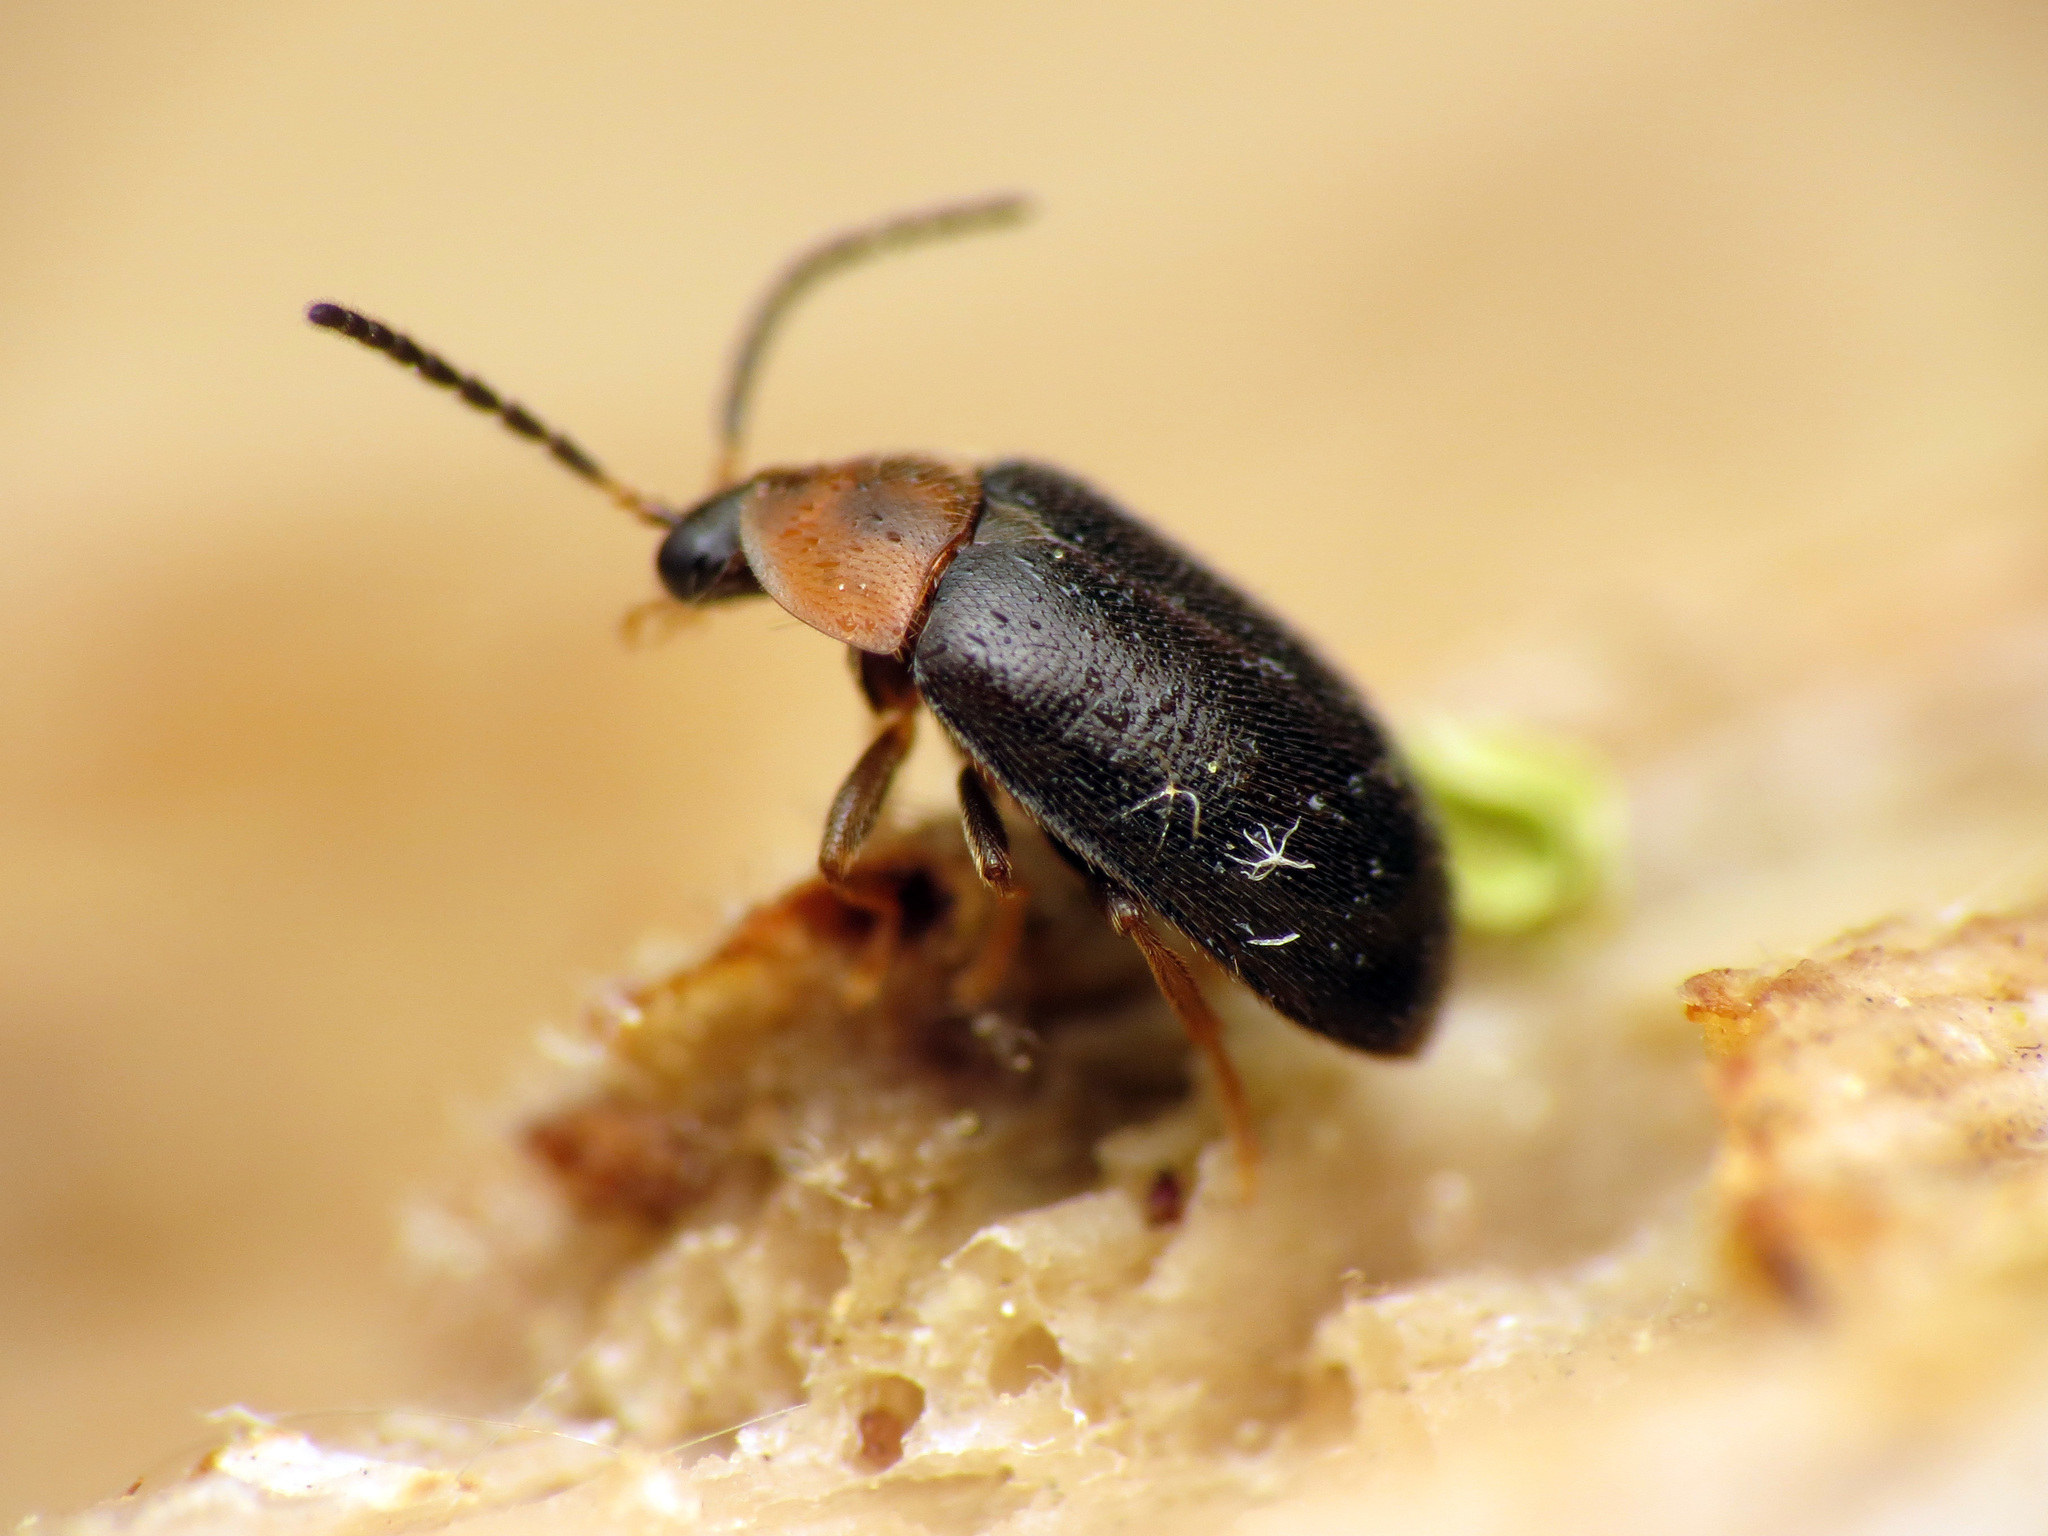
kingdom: Animalia
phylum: Arthropoda
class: Insecta
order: Coleoptera
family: Scirtidae
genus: Cyphon
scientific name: Cyphon ruficollis
